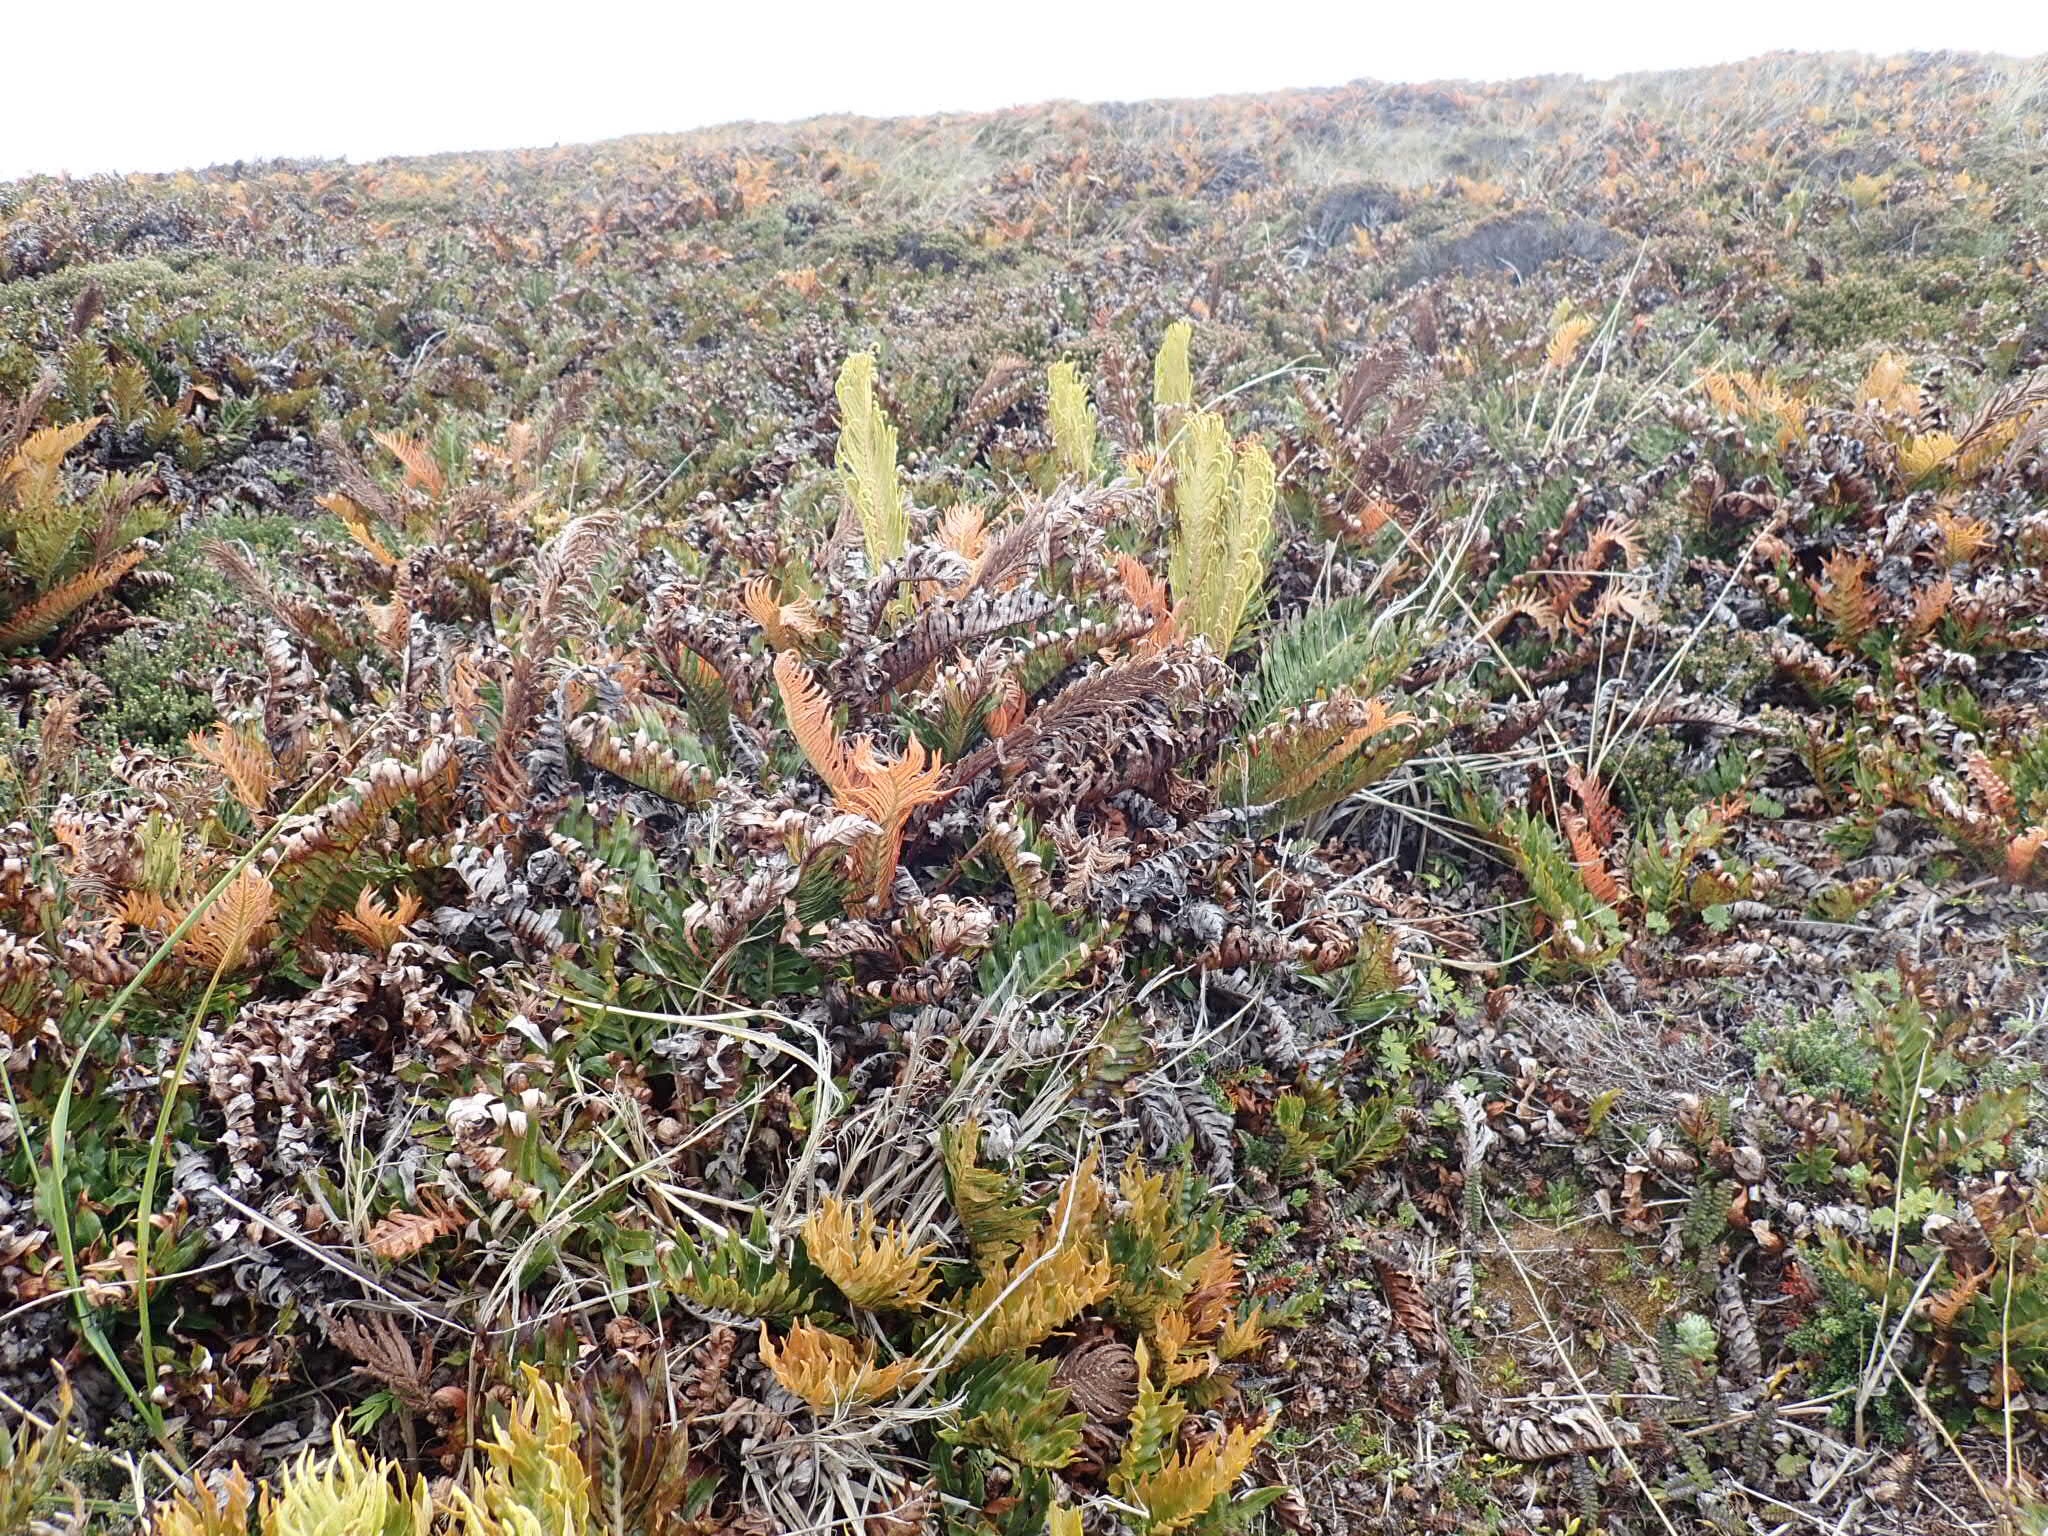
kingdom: Plantae
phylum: Tracheophyta
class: Polypodiopsida
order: Polypodiales
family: Blechnaceae
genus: Lomariocycas
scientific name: Lomariocycas magellanica
